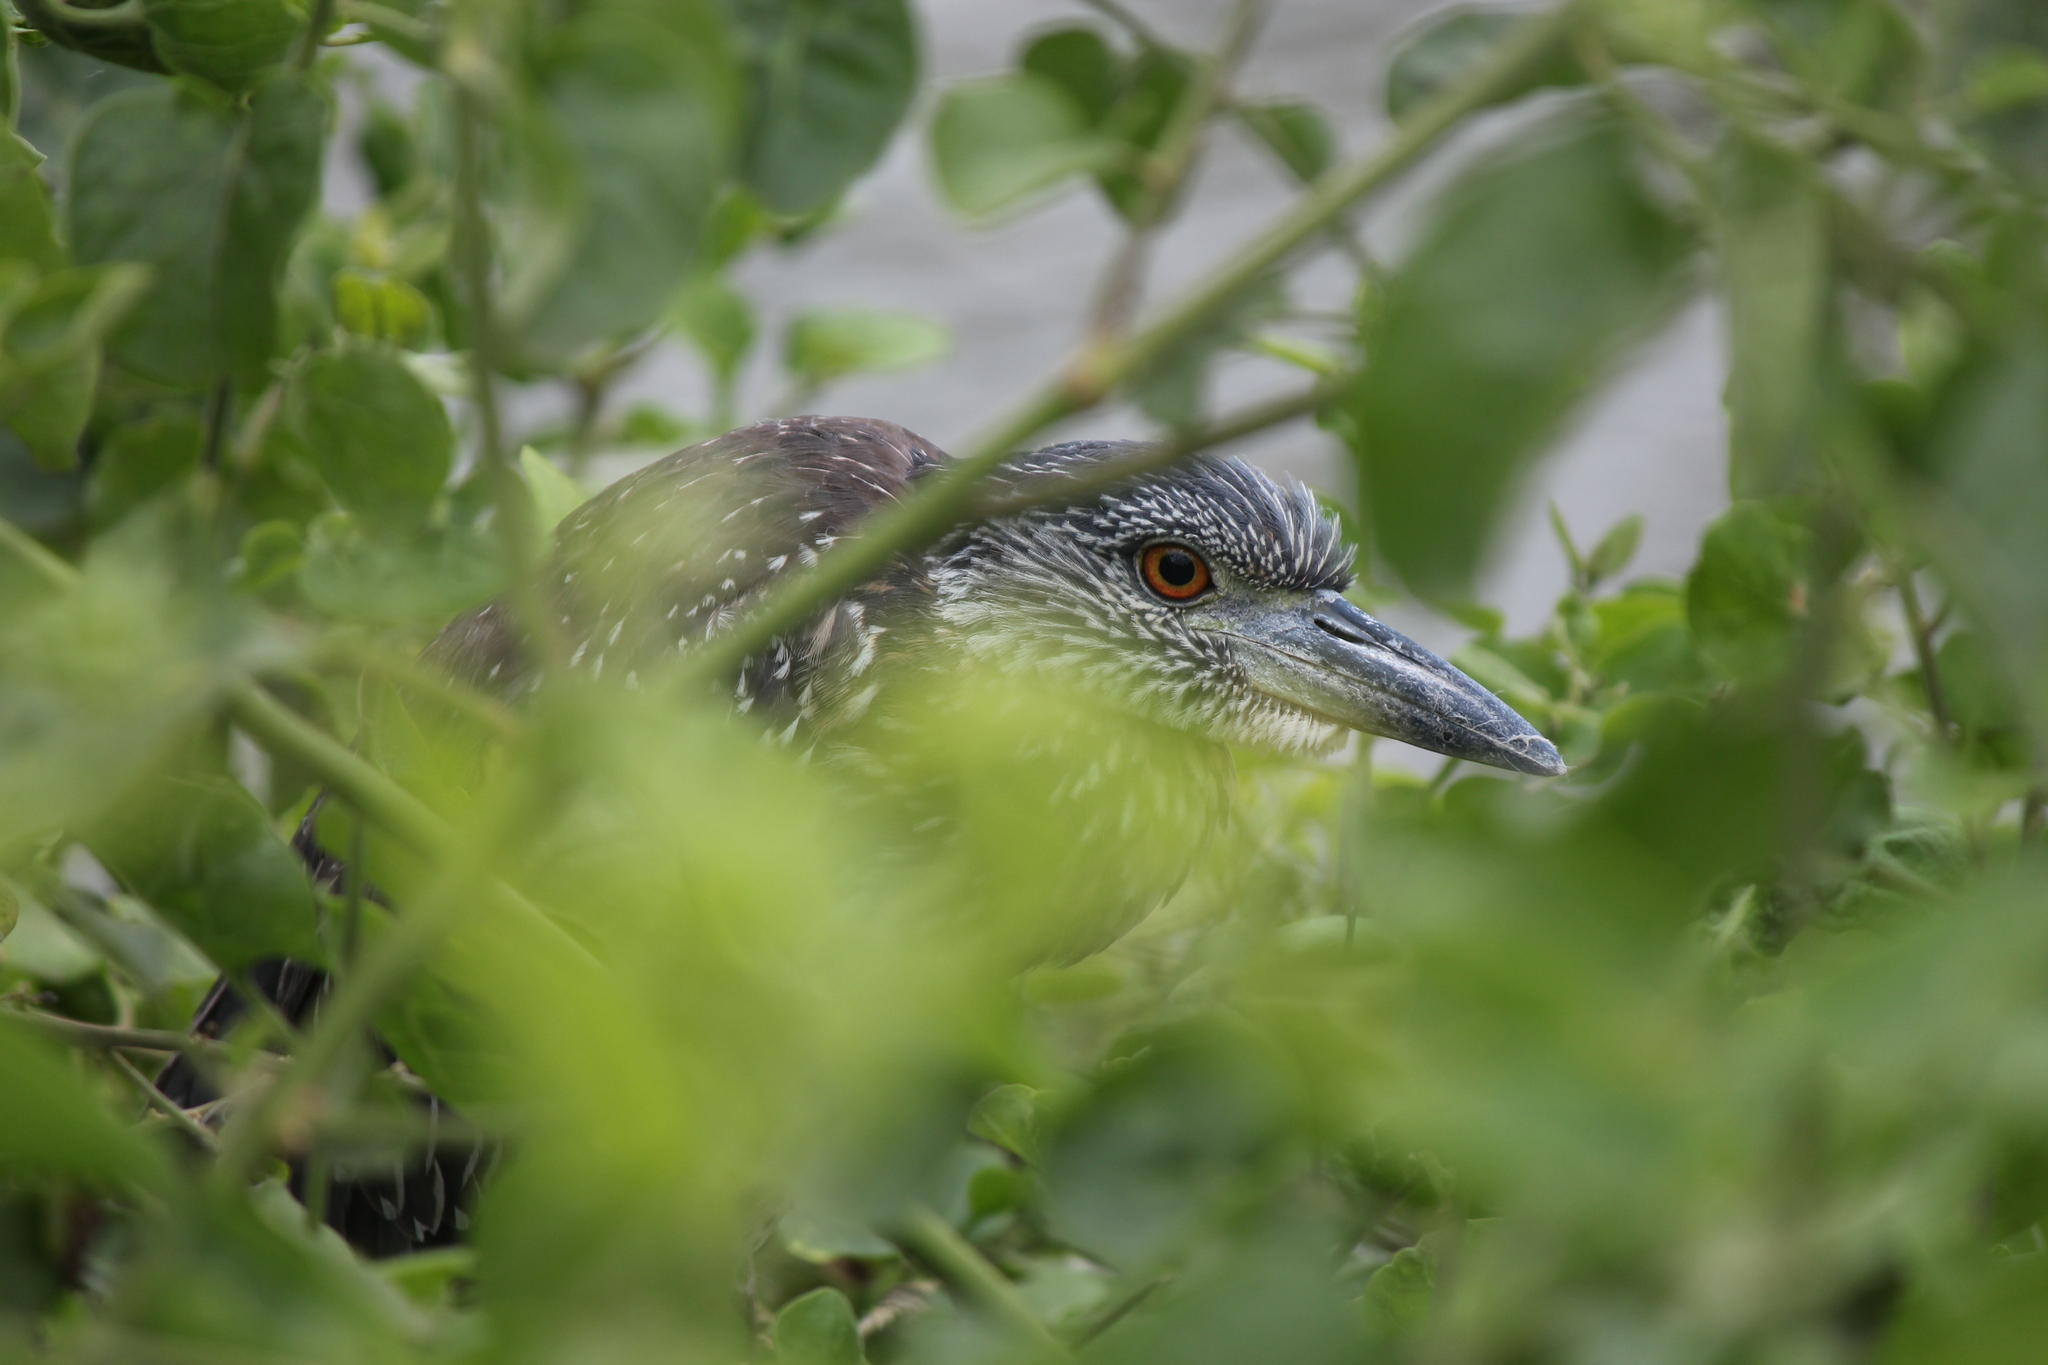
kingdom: Animalia
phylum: Chordata
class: Aves
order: Pelecaniformes
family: Ardeidae
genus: Nyctanassa
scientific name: Nyctanassa violacea
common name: Yellow-crowned night heron
